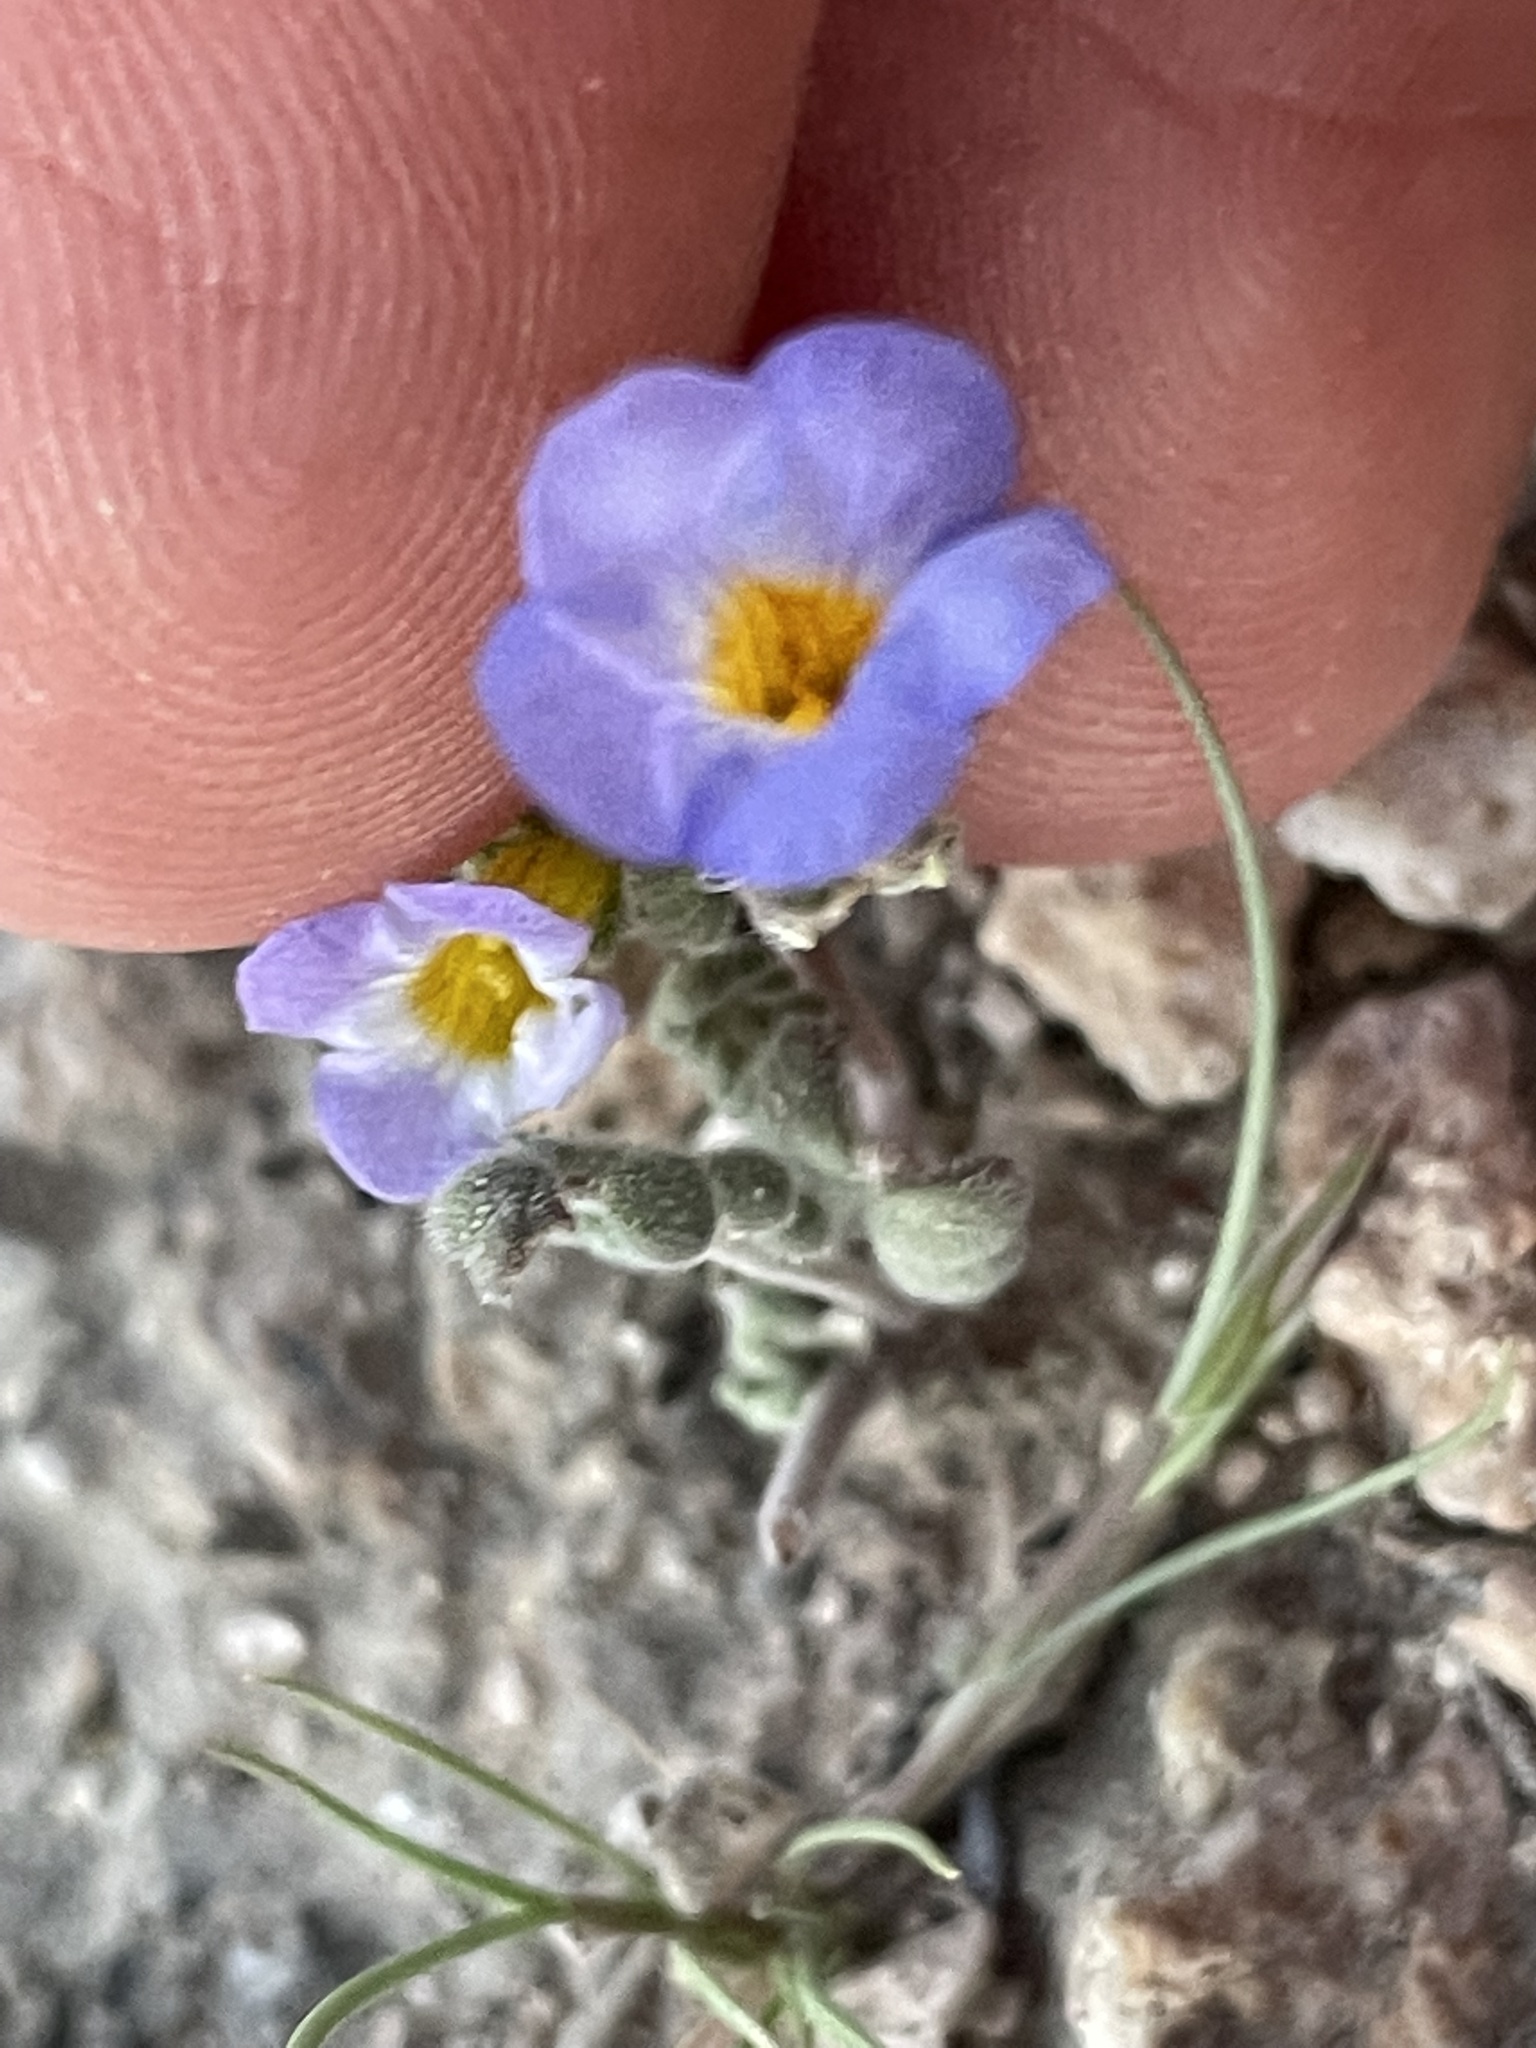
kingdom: Plantae
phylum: Tracheophyta
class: Magnoliopsida
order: Boraginales
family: Hydrophyllaceae
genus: Phacelia
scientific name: Phacelia fremontii
